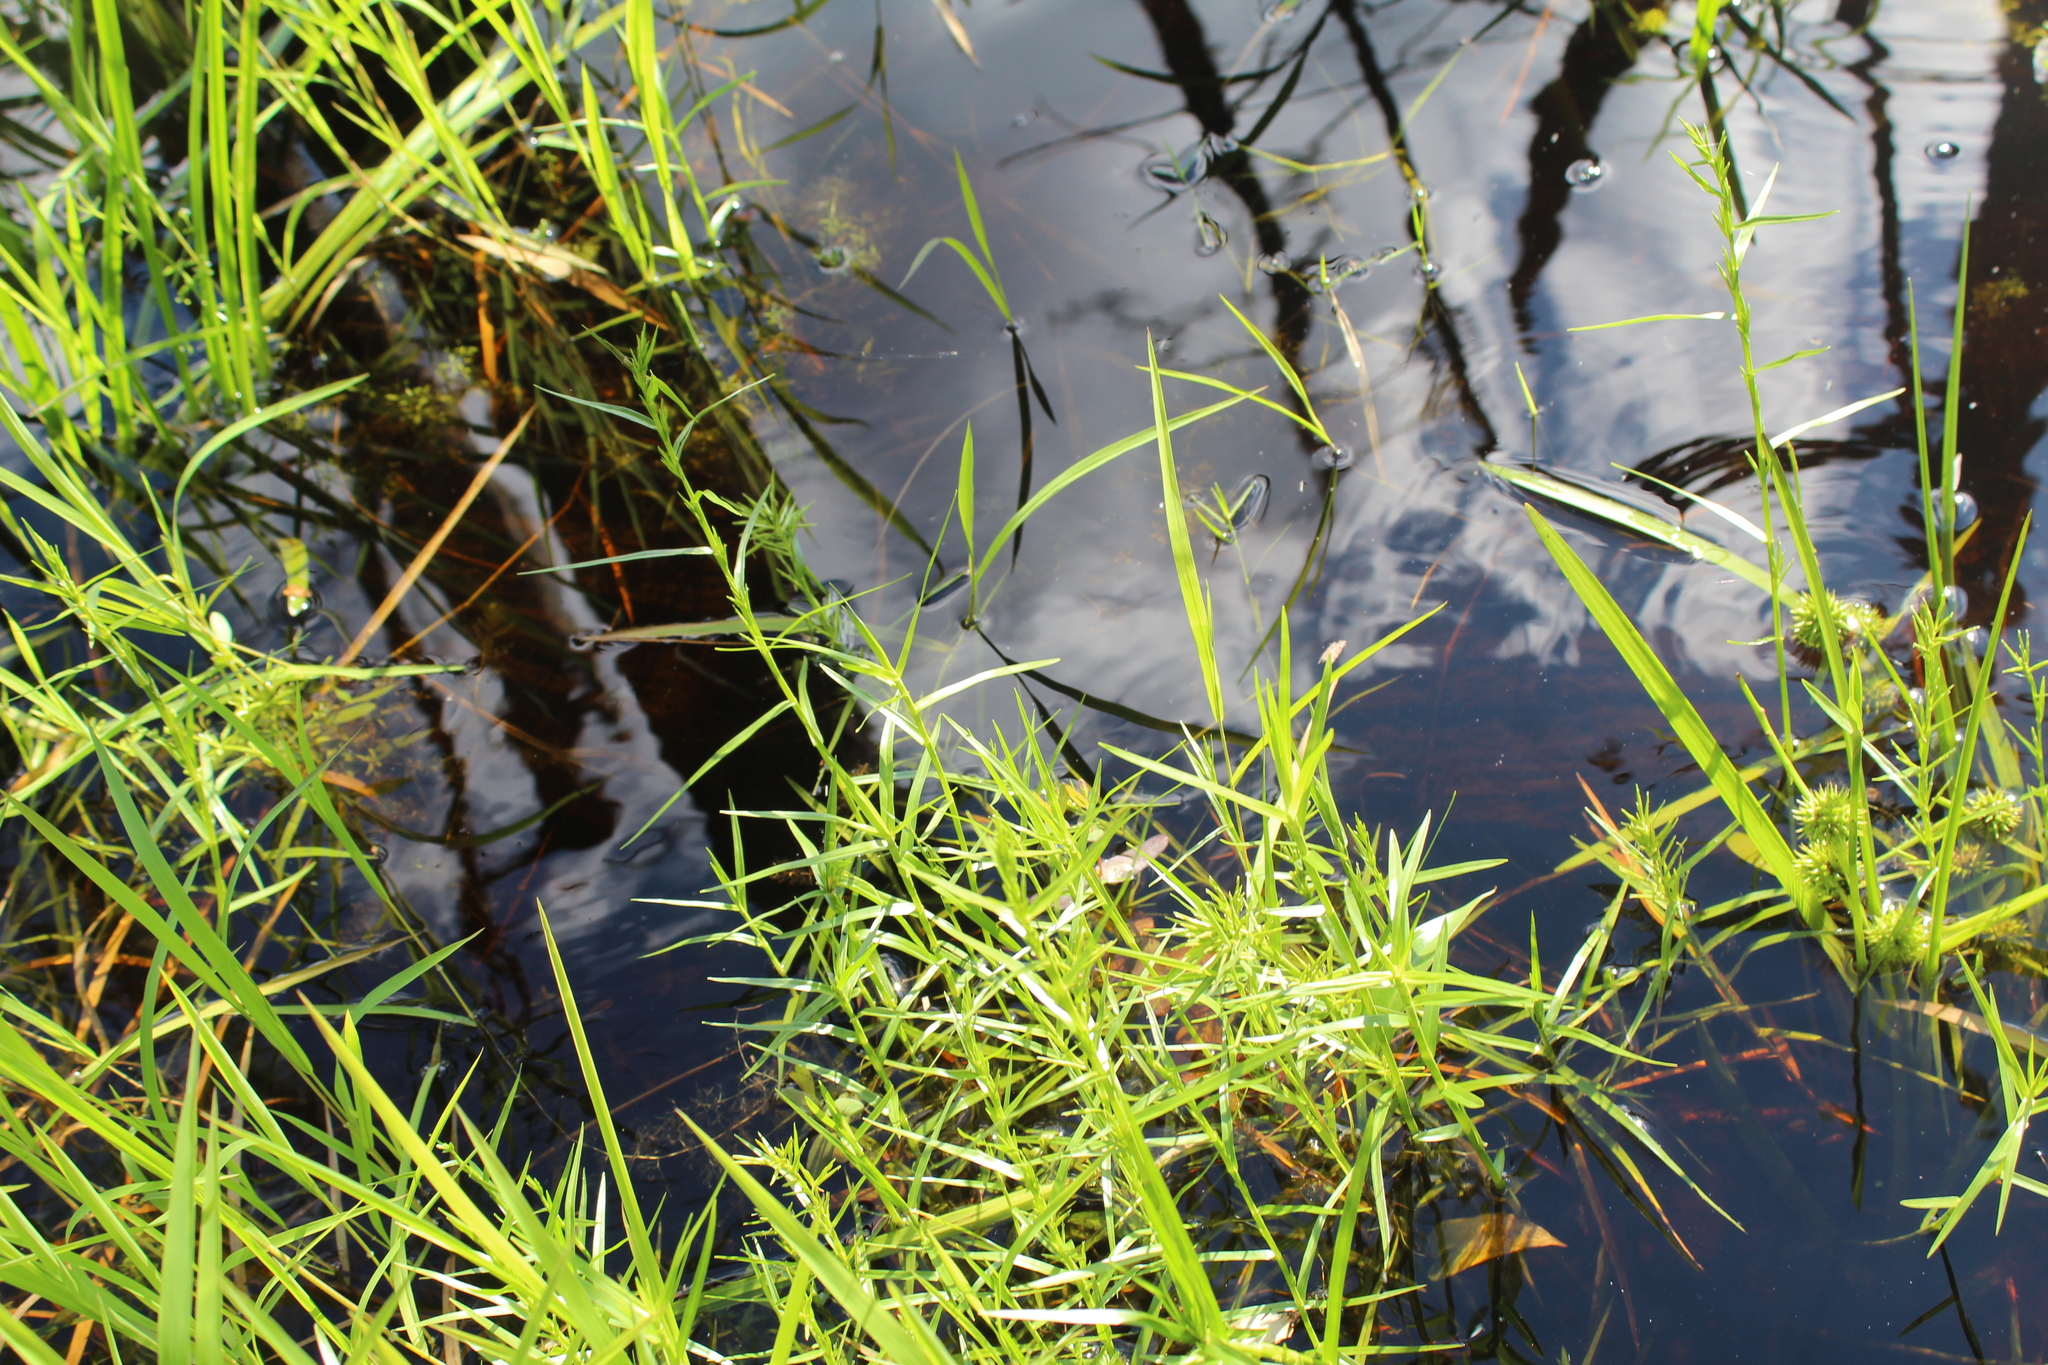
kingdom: Plantae
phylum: Tracheophyta
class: Liliopsida
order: Poales
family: Cyperaceae
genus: Dulichium
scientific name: Dulichium arundinaceum
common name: Three-way sedge
